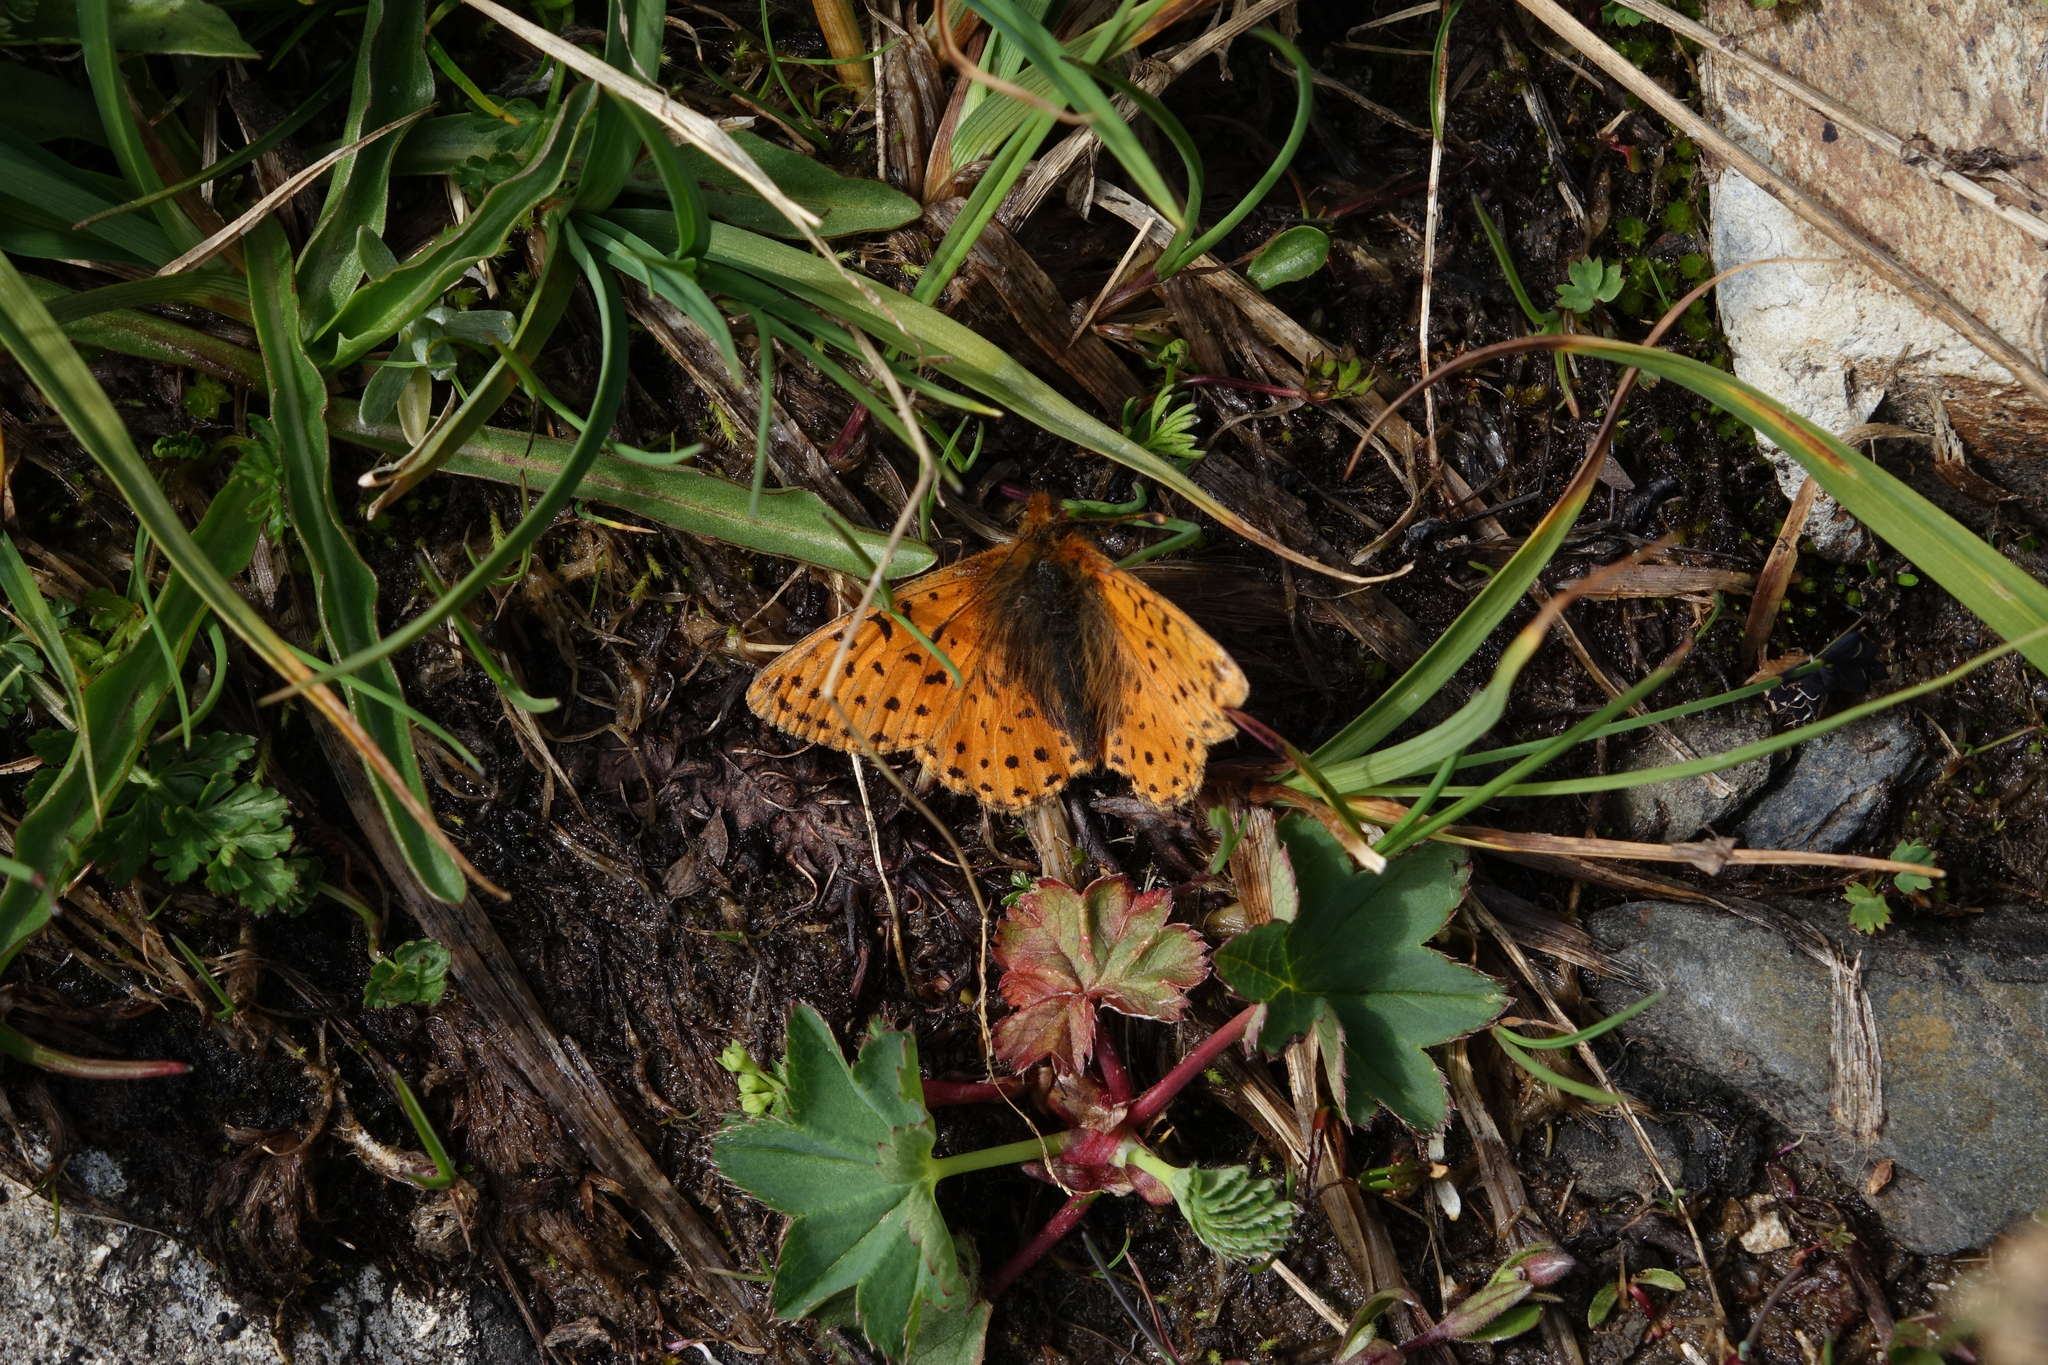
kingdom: Animalia
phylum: Arthropoda
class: Insecta
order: Lepidoptera
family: Nymphalidae
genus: Boloria
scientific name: Boloria caucasica
